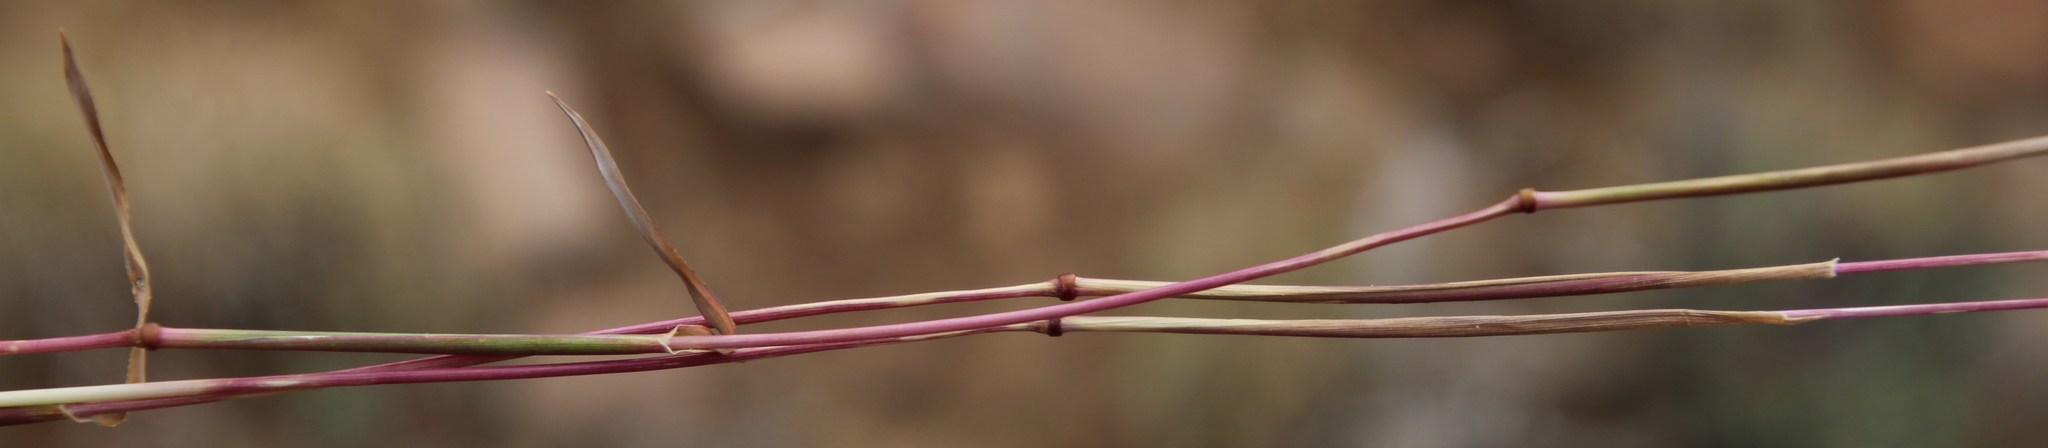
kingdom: Plantae
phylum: Tracheophyta
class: Liliopsida
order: Poales
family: Poaceae
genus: Tragus
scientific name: Tragus koelerioides
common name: Creeping carrot-seed grass
